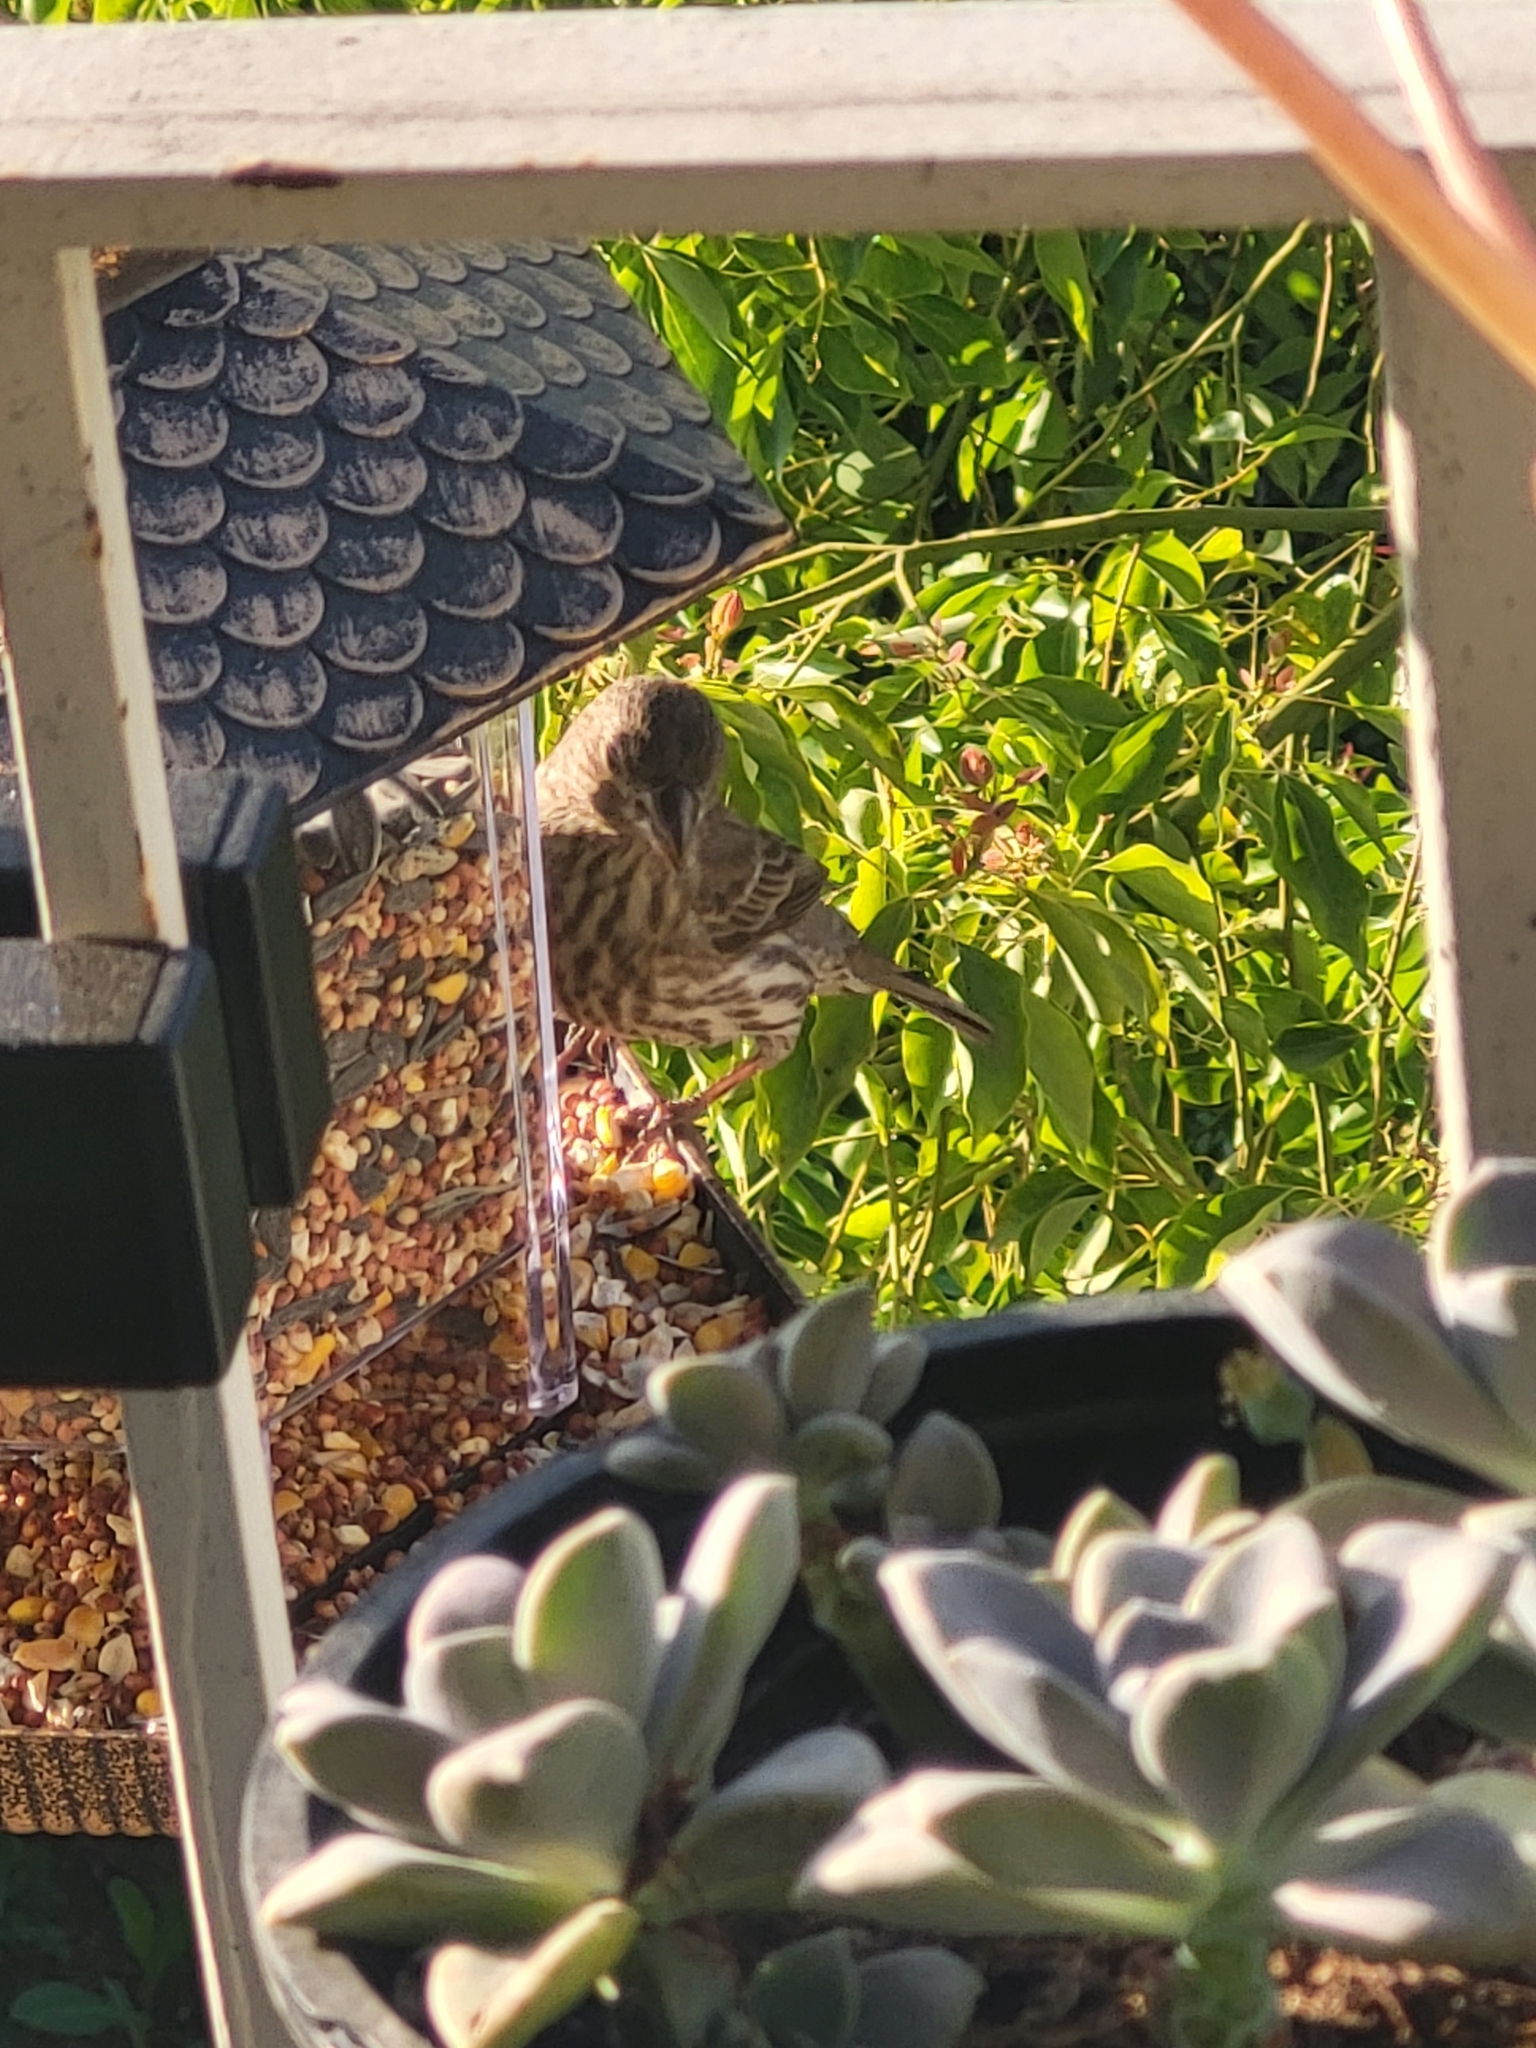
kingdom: Animalia
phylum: Chordata
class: Aves
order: Passeriformes
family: Fringillidae
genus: Haemorhous
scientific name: Haemorhous mexicanus
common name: House finch
